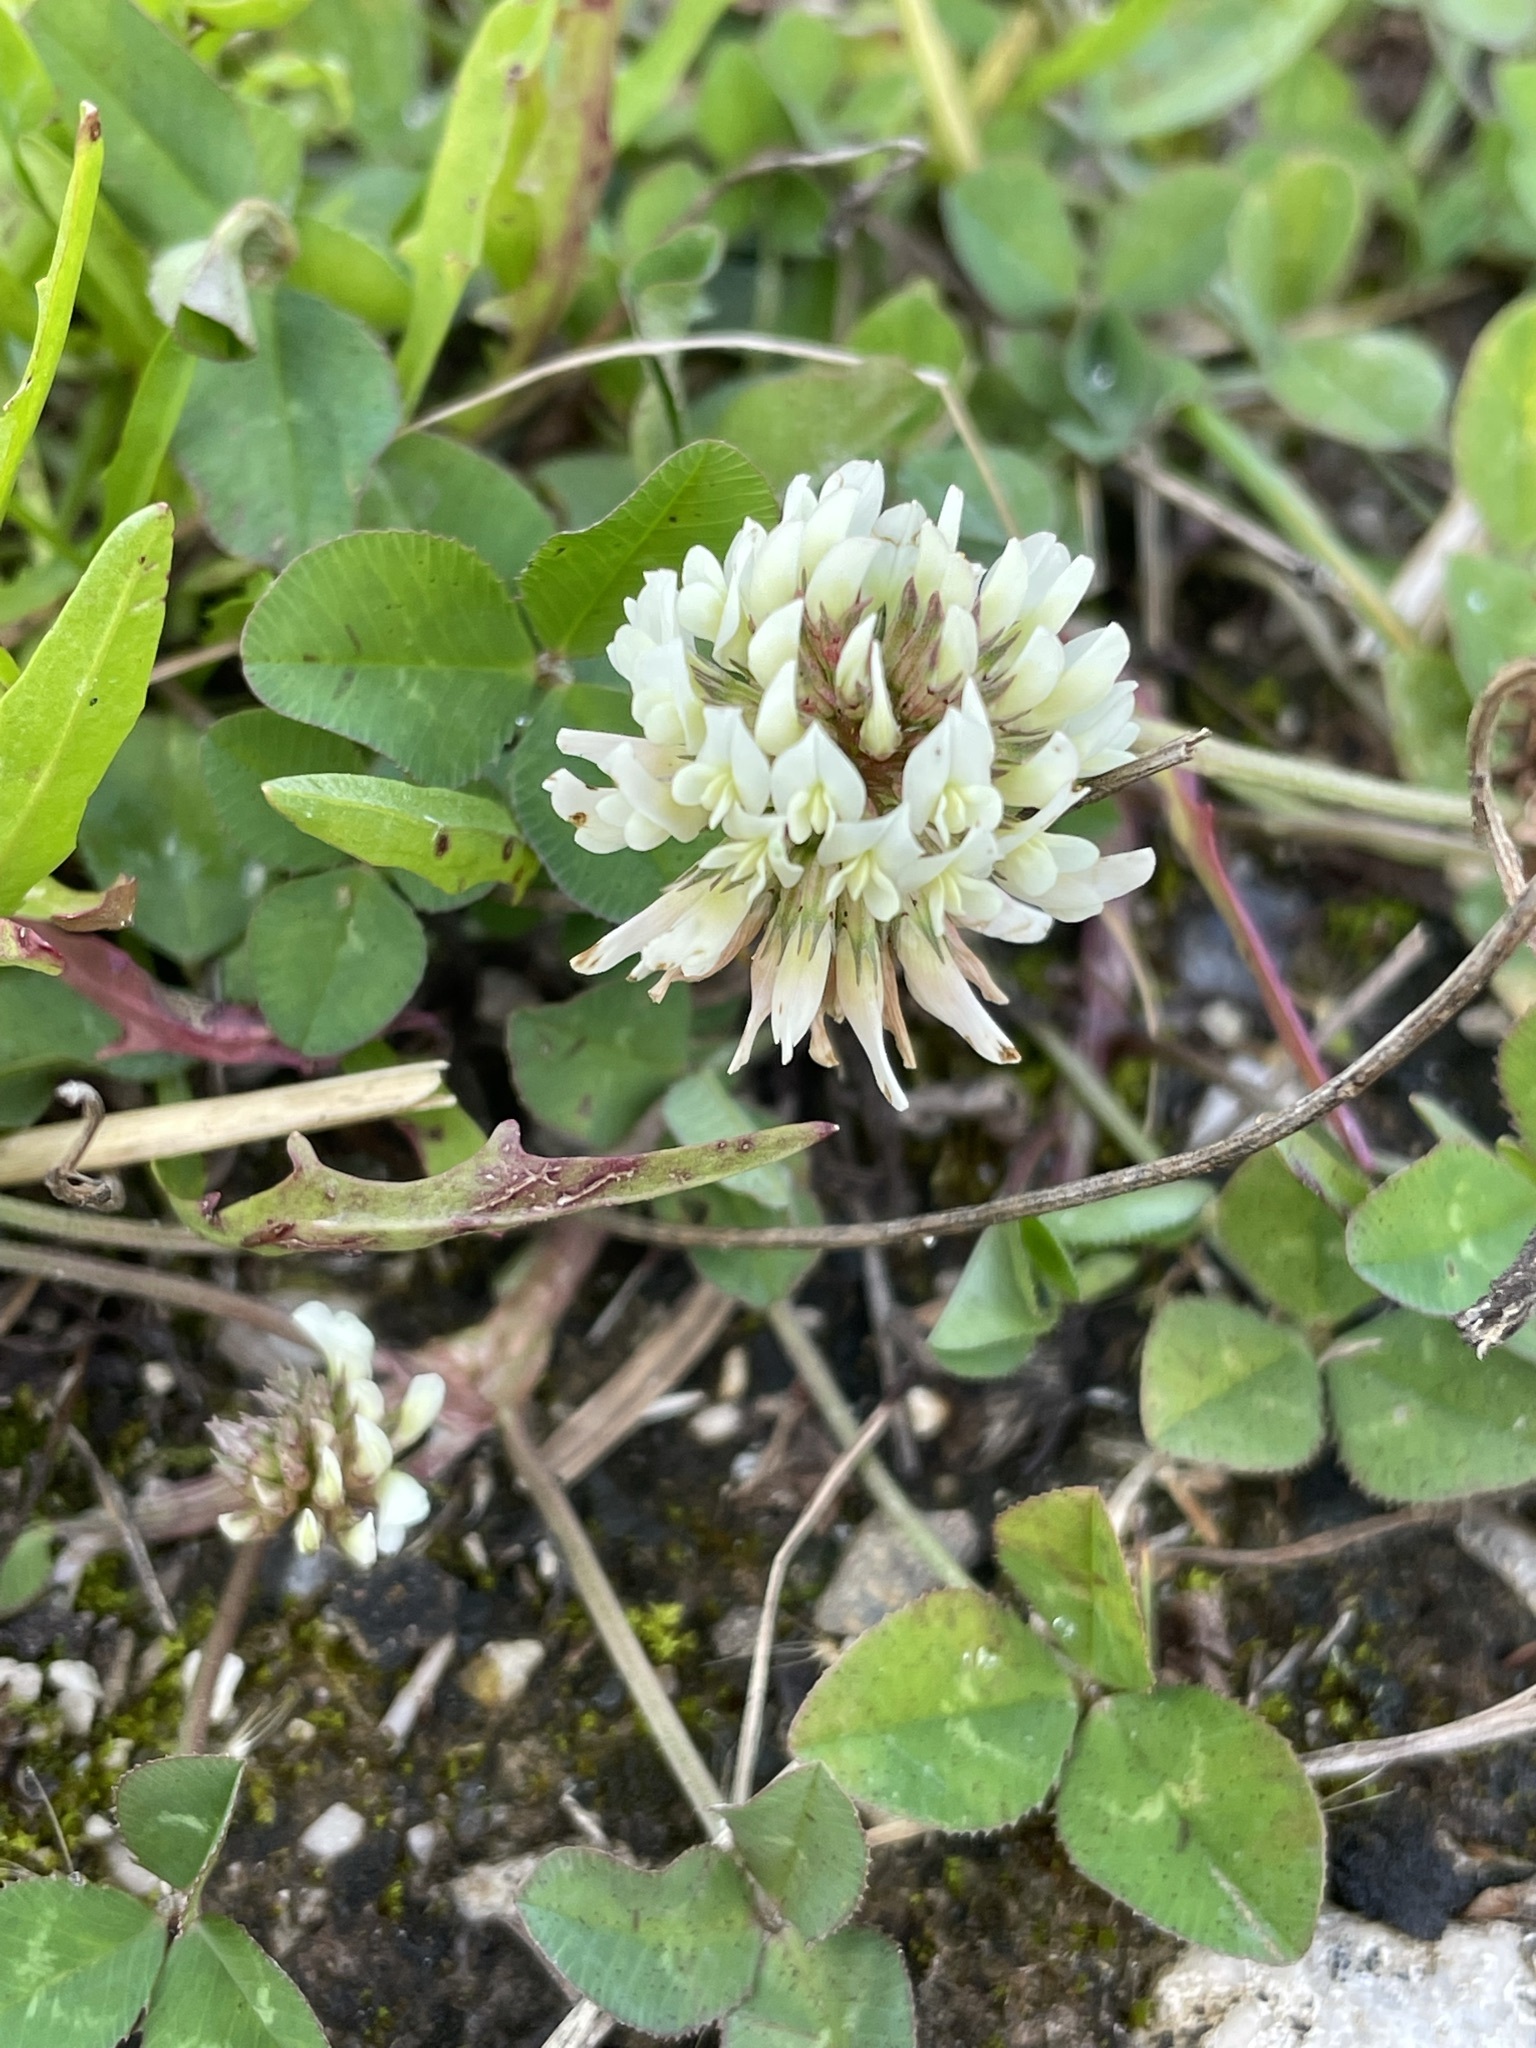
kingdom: Plantae
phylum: Tracheophyta
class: Magnoliopsida
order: Fabales
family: Fabaceae
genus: Trifolium
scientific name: Trifolium repens
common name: White clover
